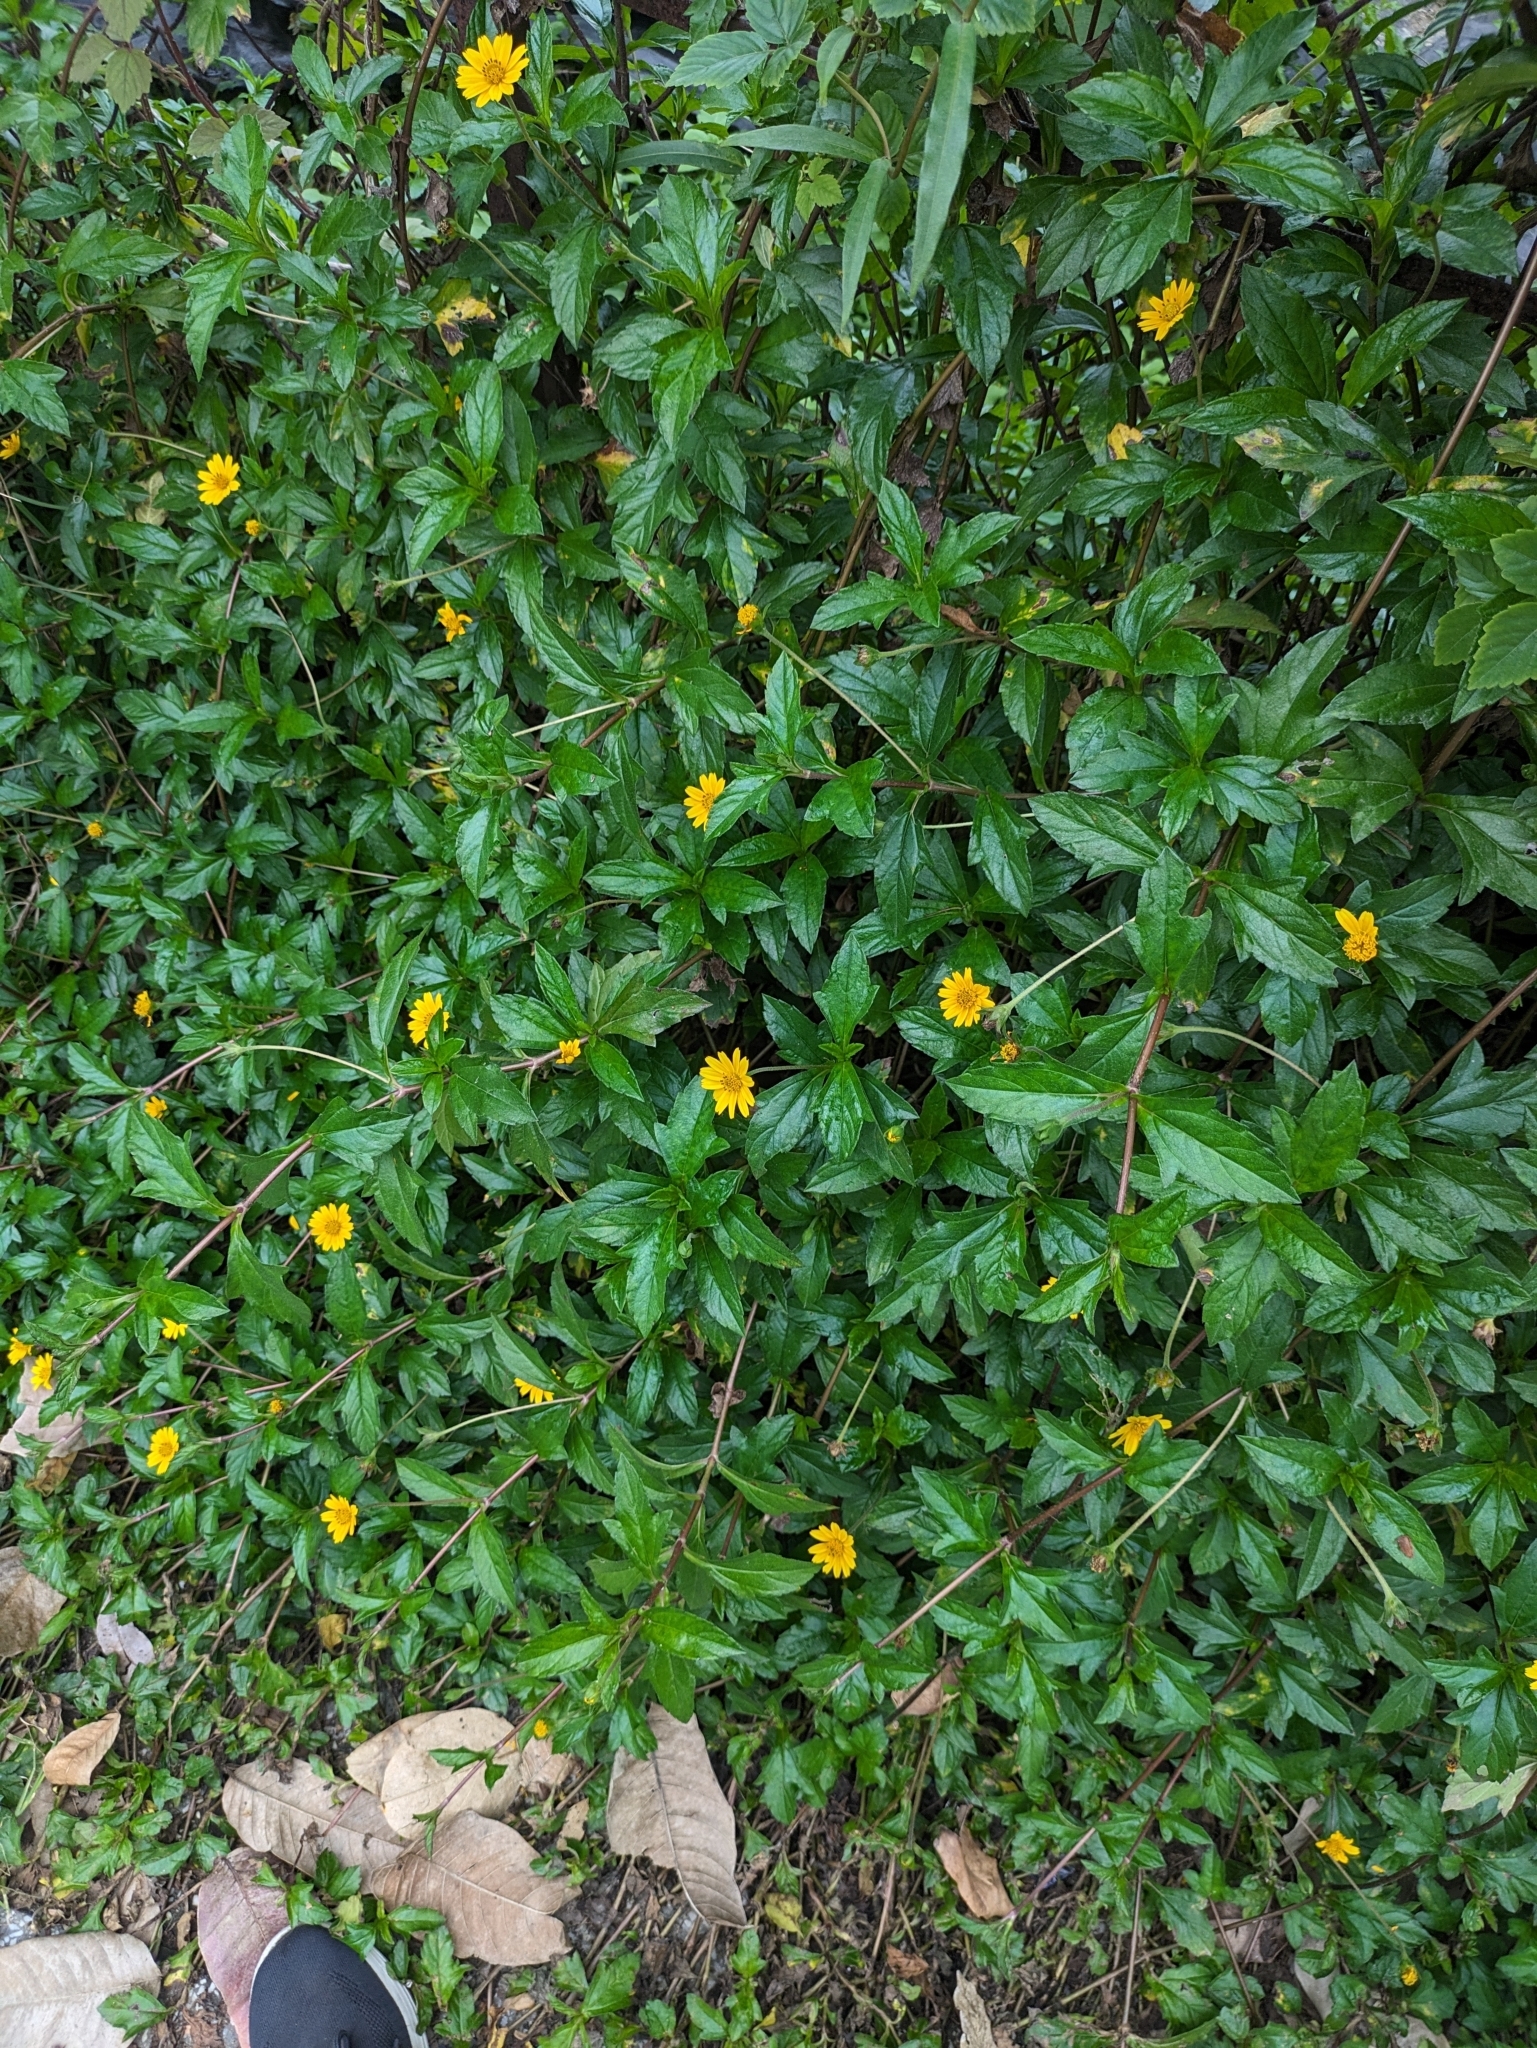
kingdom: Plantae
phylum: Tracheophyta
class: Magnoliopsida
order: Asterales
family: Asteraceae
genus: Sphagneticola
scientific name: Sphagneticola trilobata
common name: Bay biscayne creeping-oxeye
